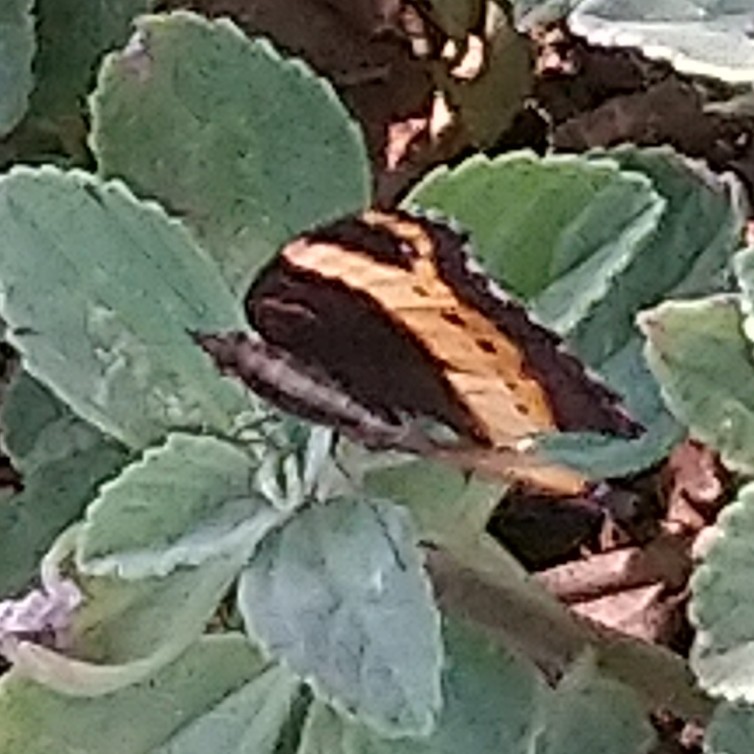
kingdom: Animalia
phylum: Arthropoda
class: Insecta
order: Lepidoptera
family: Nymphalidae
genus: Junonia
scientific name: Junonia archesia
